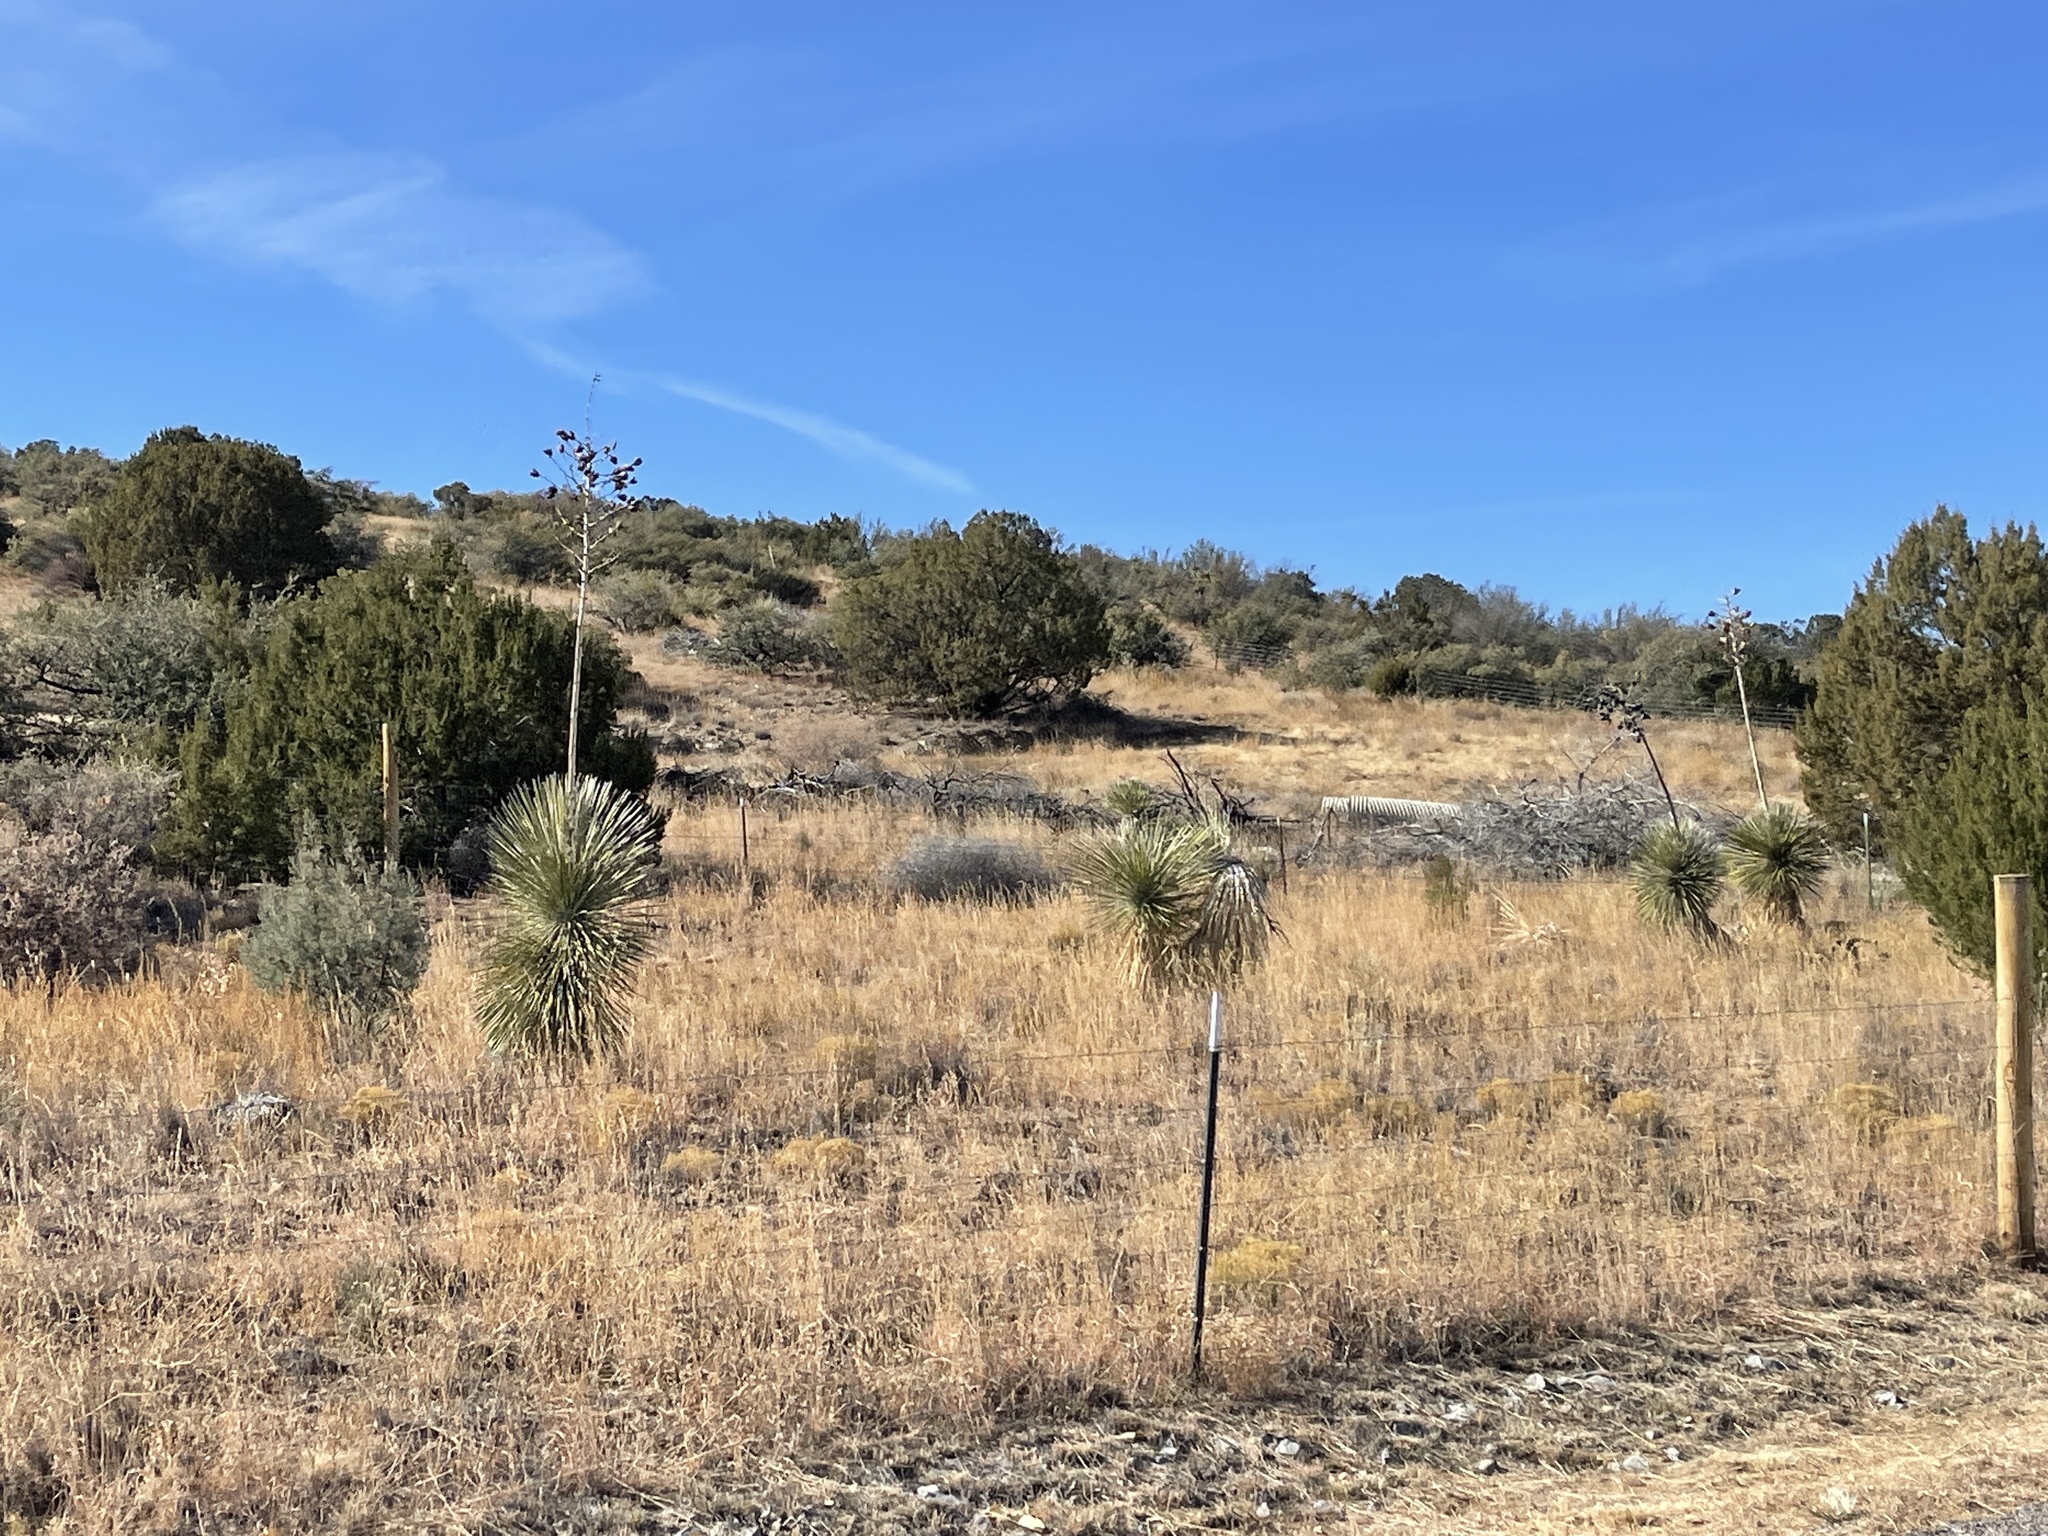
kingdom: Plantae
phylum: Tracheophyta
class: Liliopsida
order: Asparagales
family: Asparagaceae
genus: Yucca
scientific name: Yucca elata
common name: Palmella
